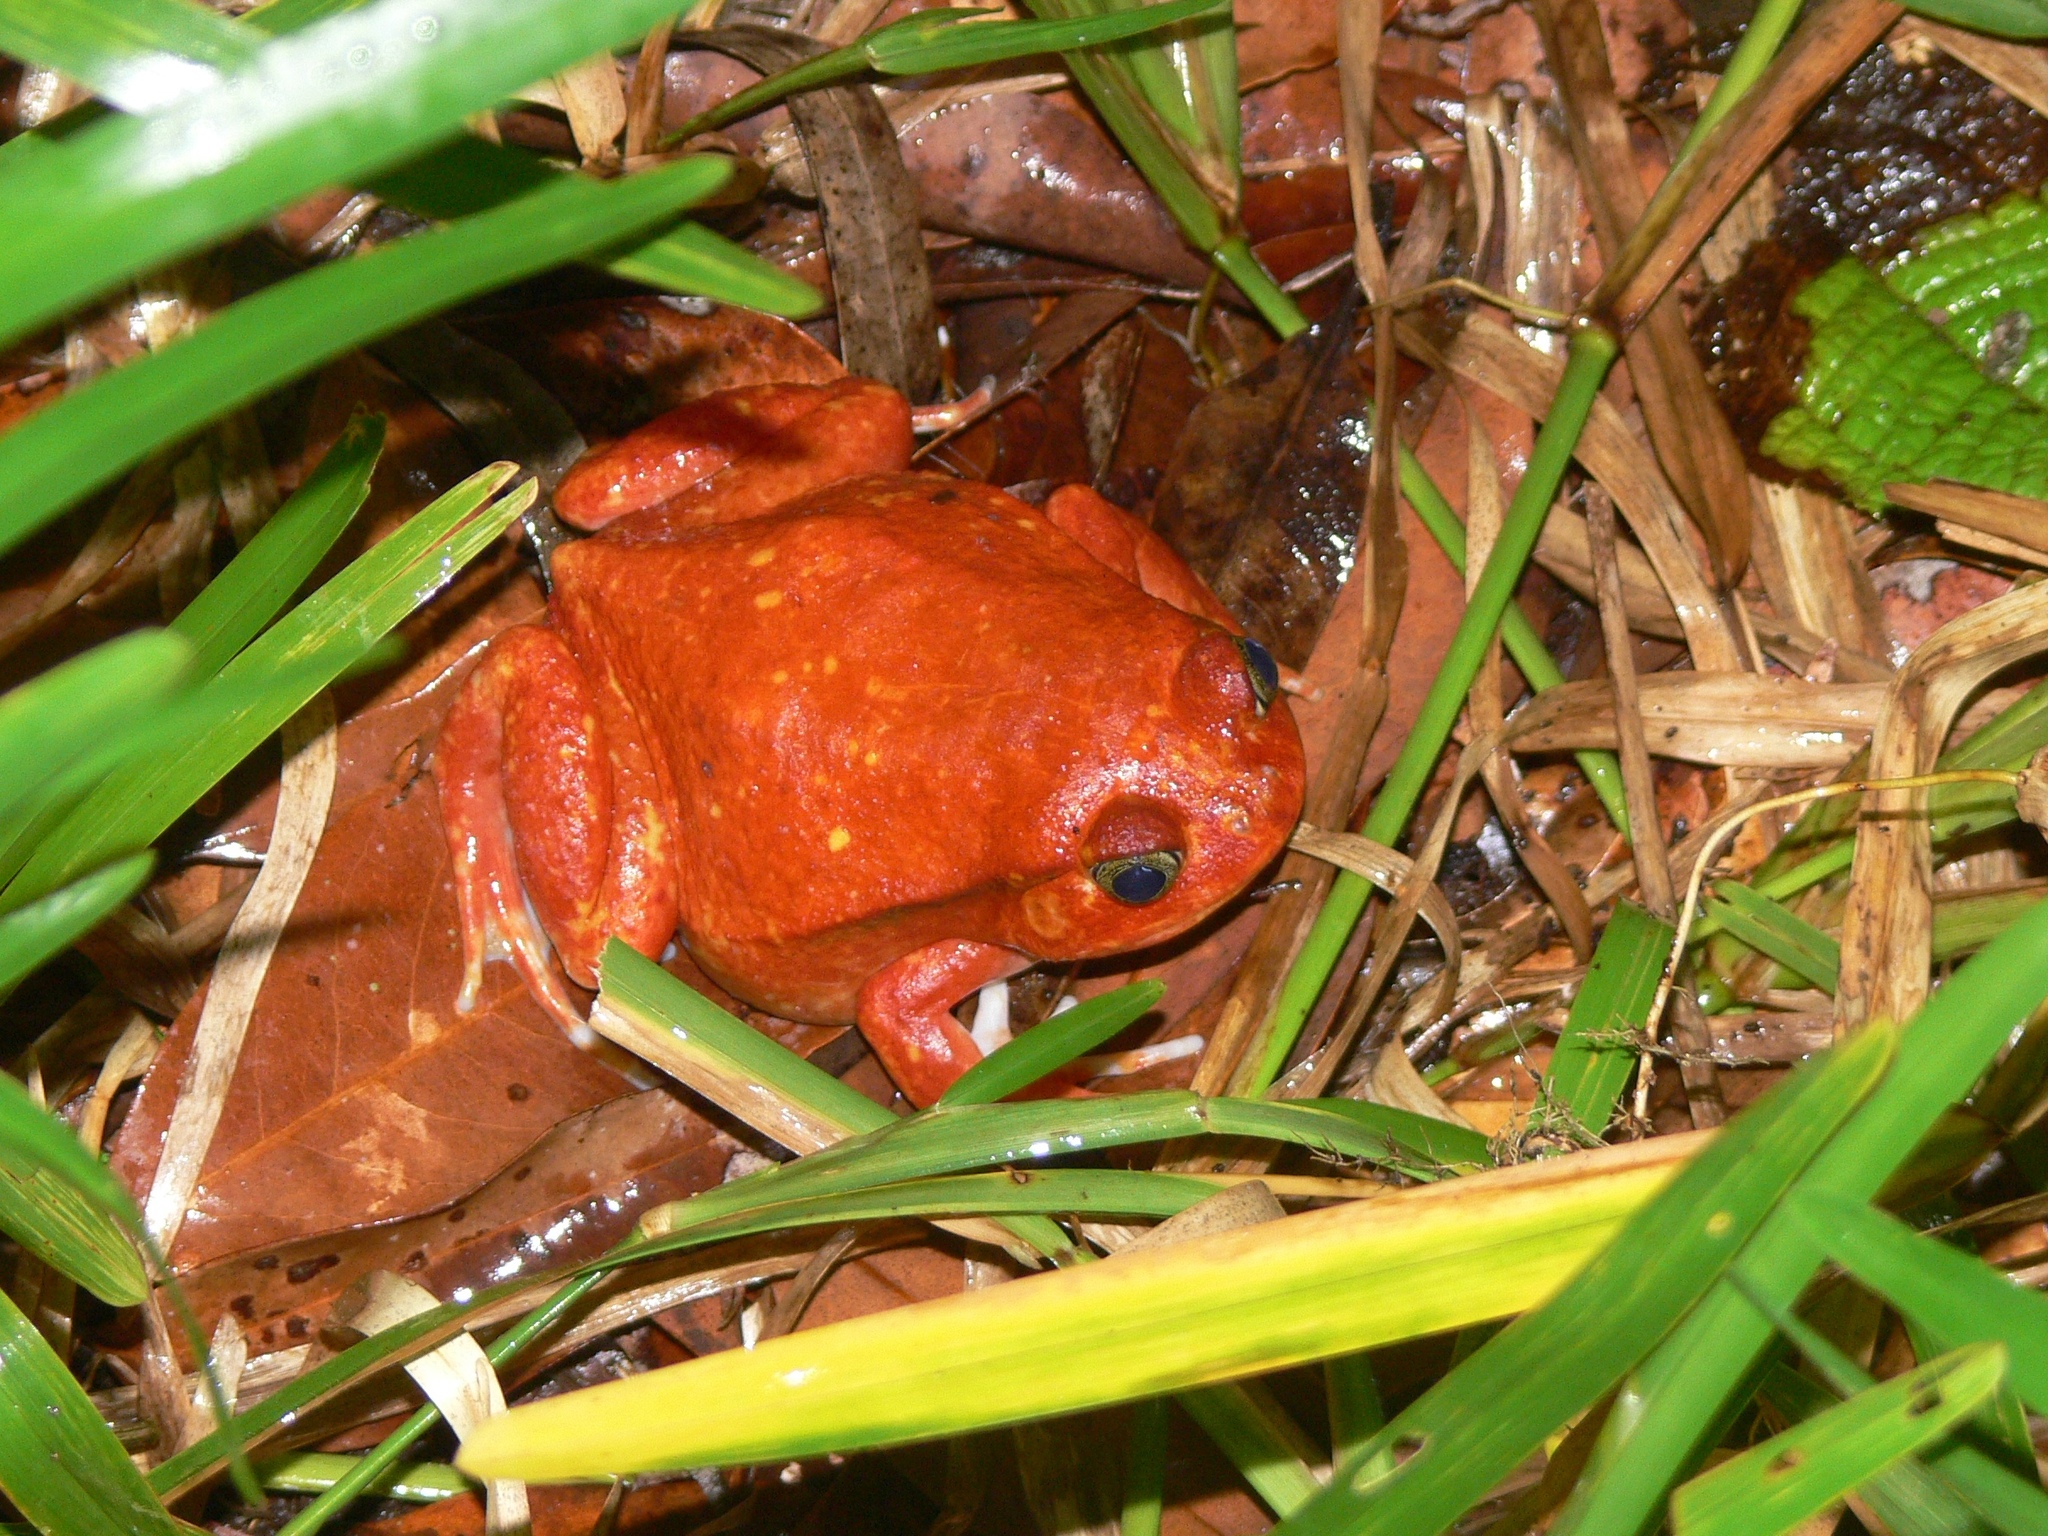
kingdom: Animalia
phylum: Chordata
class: Amphibia
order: Anura
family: Microhylidae
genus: Dyscophus
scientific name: Dyscophus antongilii
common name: Tomato frog
